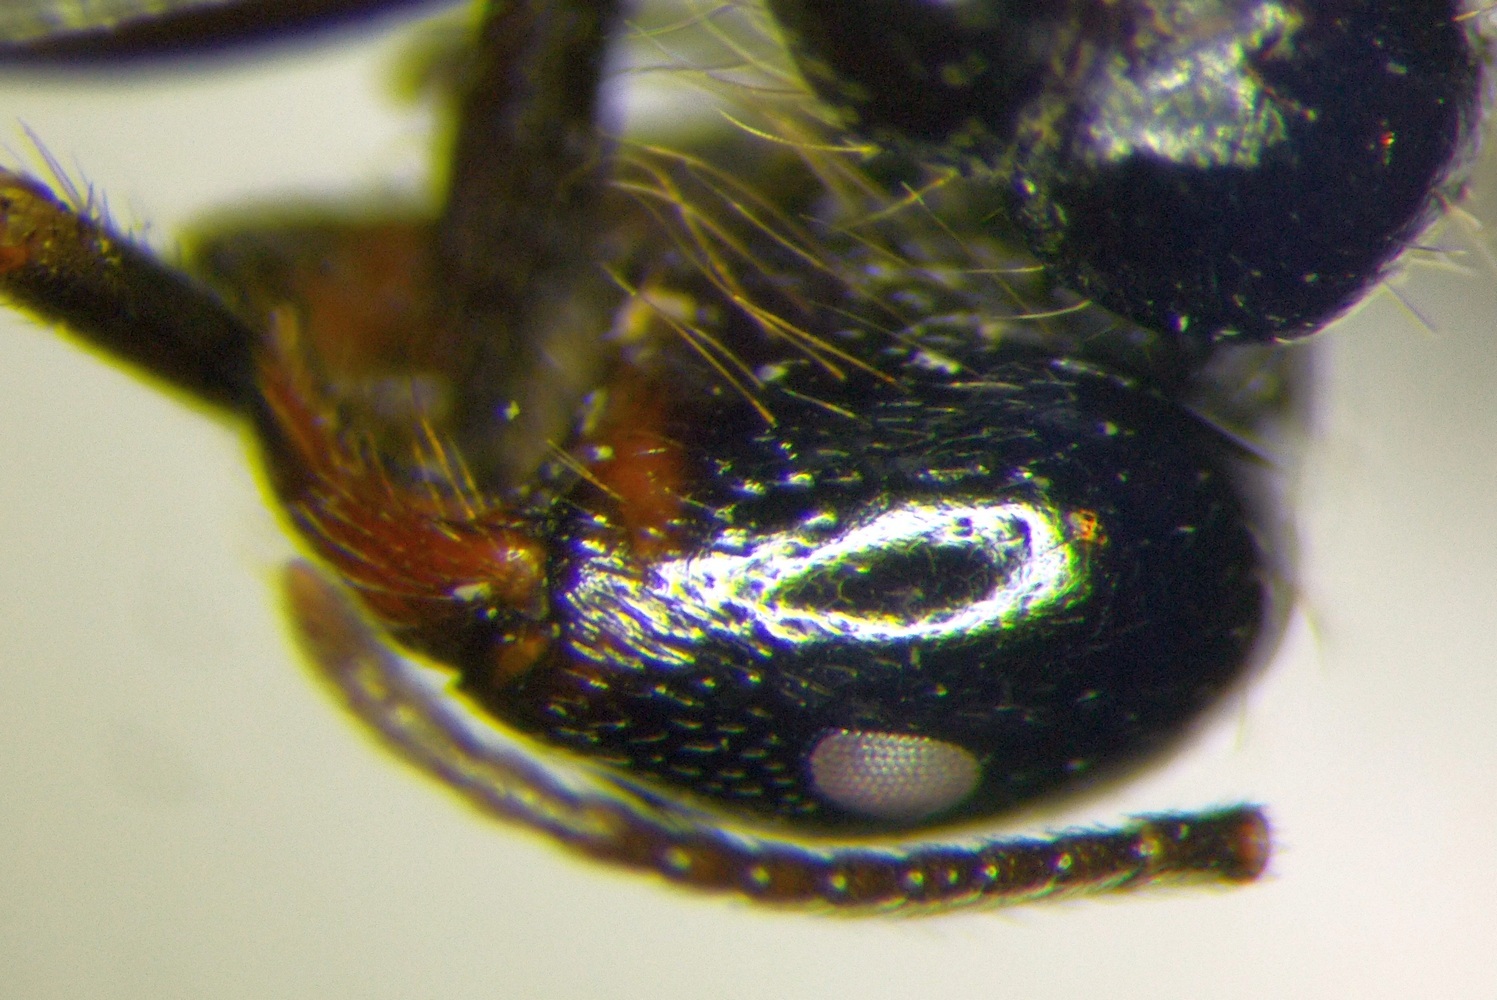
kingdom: Animalia
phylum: Arthropoda
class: Insecta
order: Hymenoptera
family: Formicidae
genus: Messor
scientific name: Messor aralocaspius
